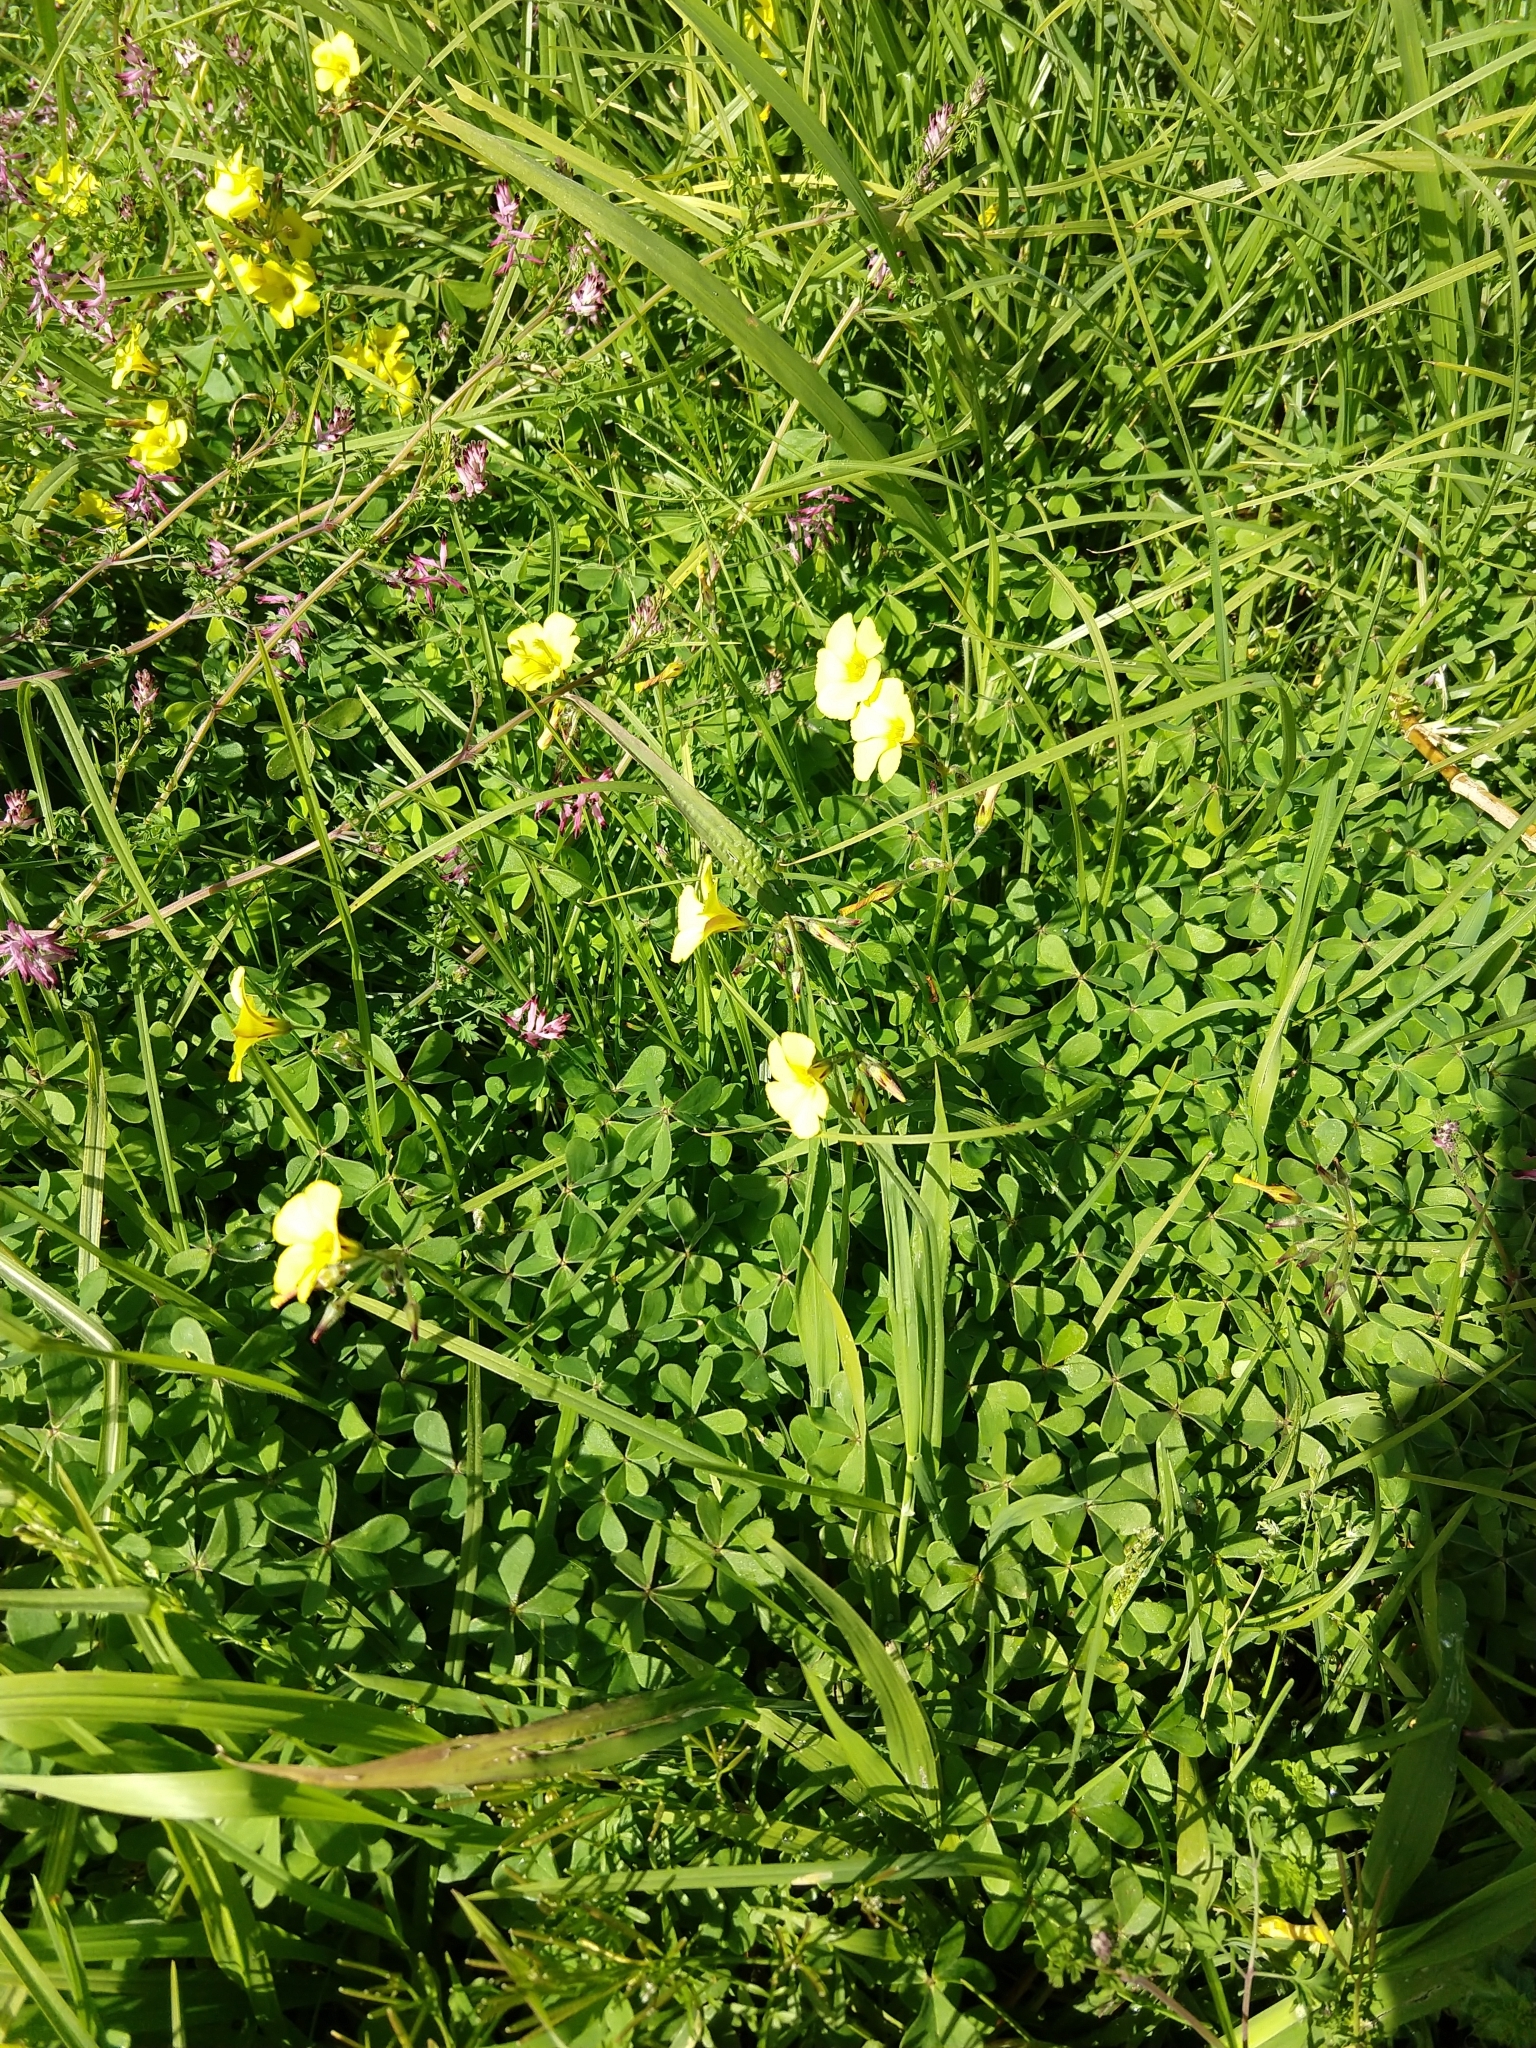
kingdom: Plantae
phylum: Tracheophyta
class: Magnoliopsida
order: Oxalidales
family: Oxalidaceae
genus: Oxalis
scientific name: Oxalis pes-caprae
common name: Bermuda-buttercup
